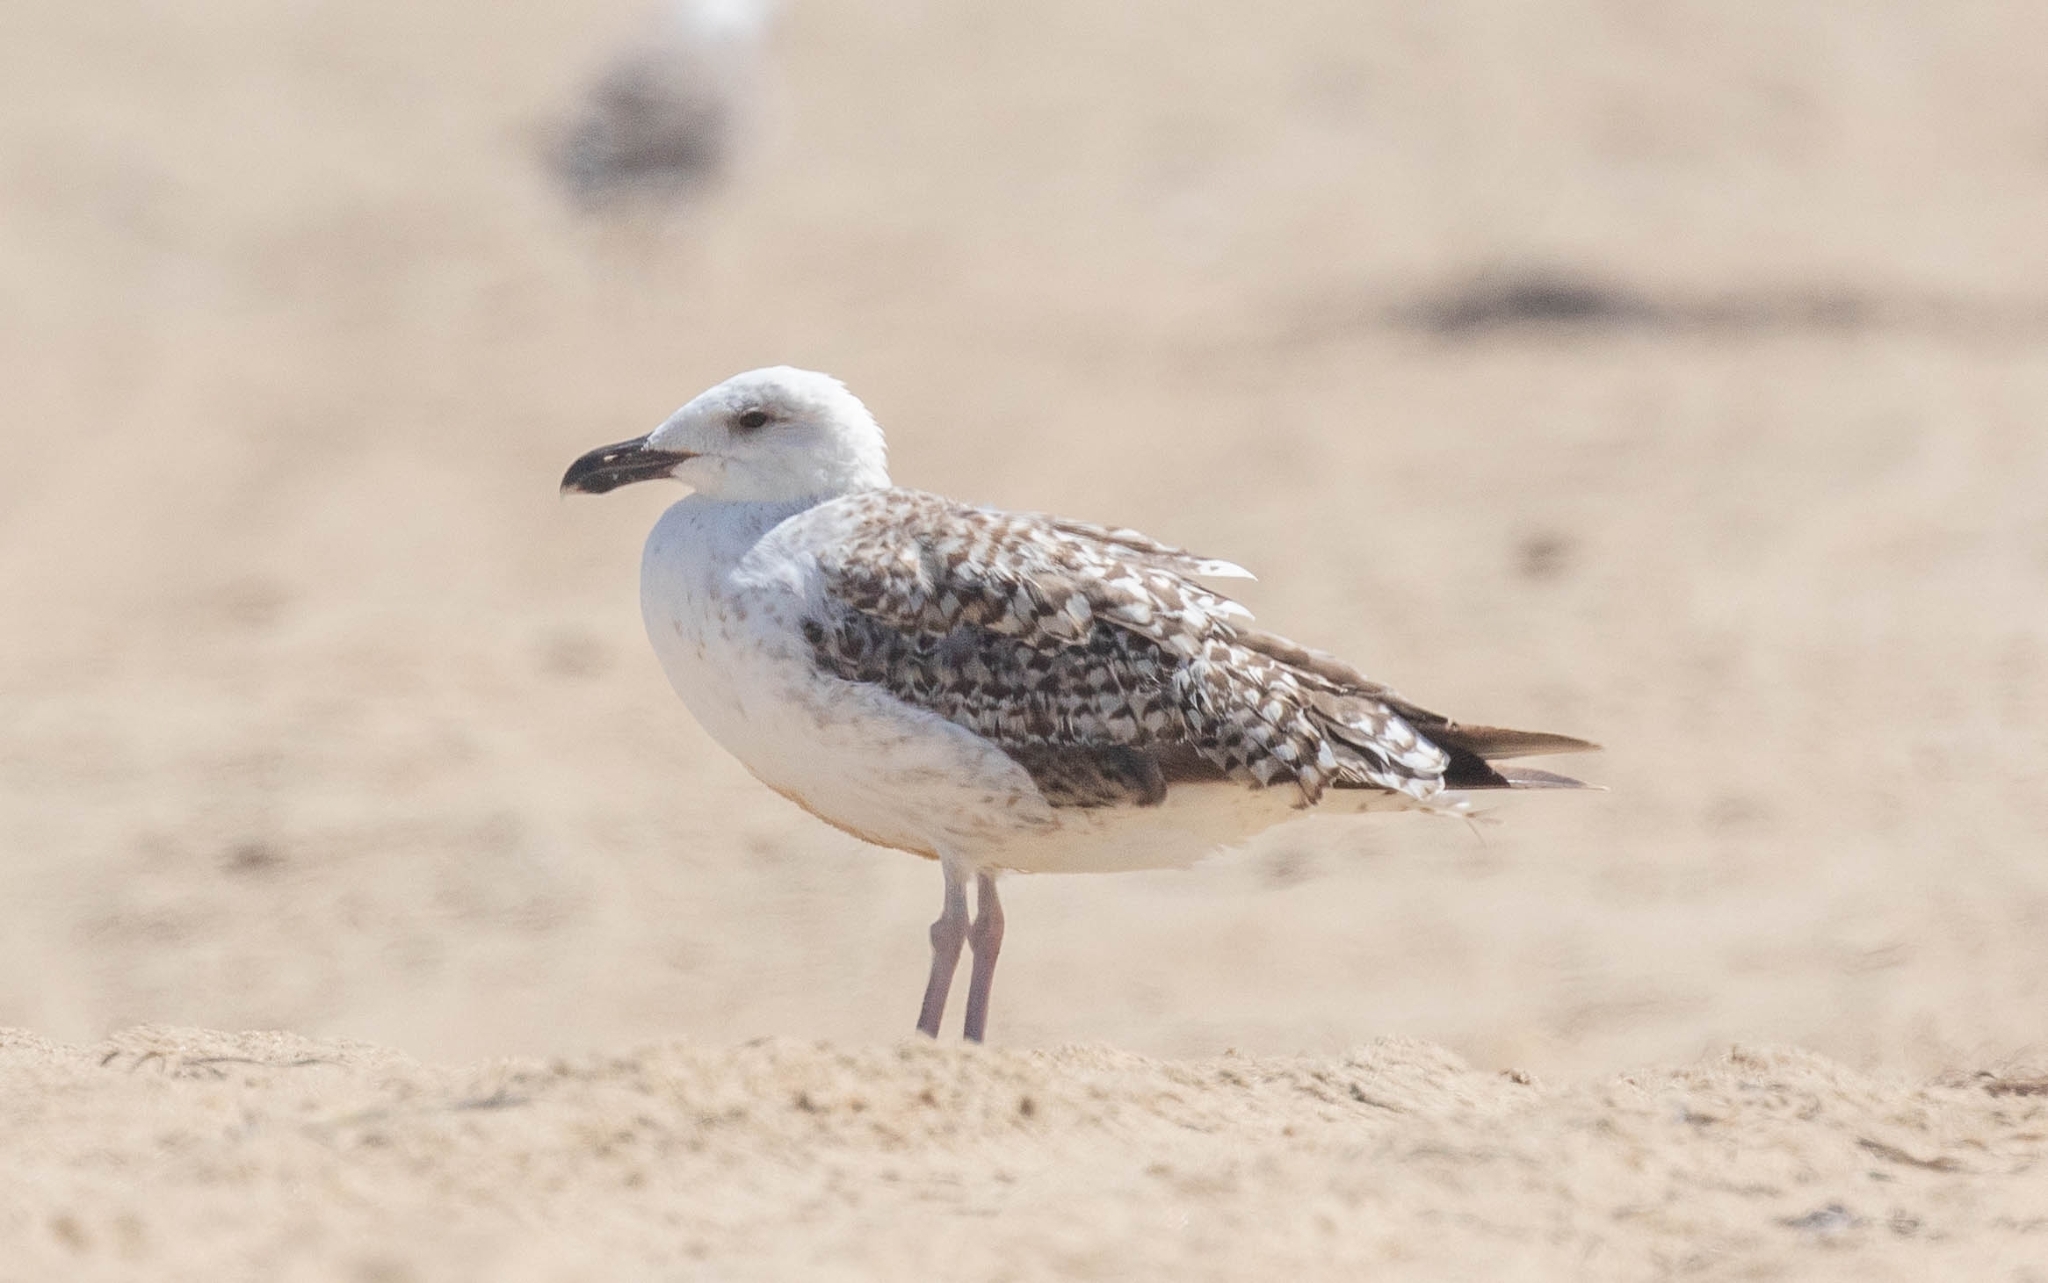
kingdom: Animalia
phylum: Chordata
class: Aves
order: Charadriiformes
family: Laridae
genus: Larus
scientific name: Larus marinus
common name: Great black-backed gull
